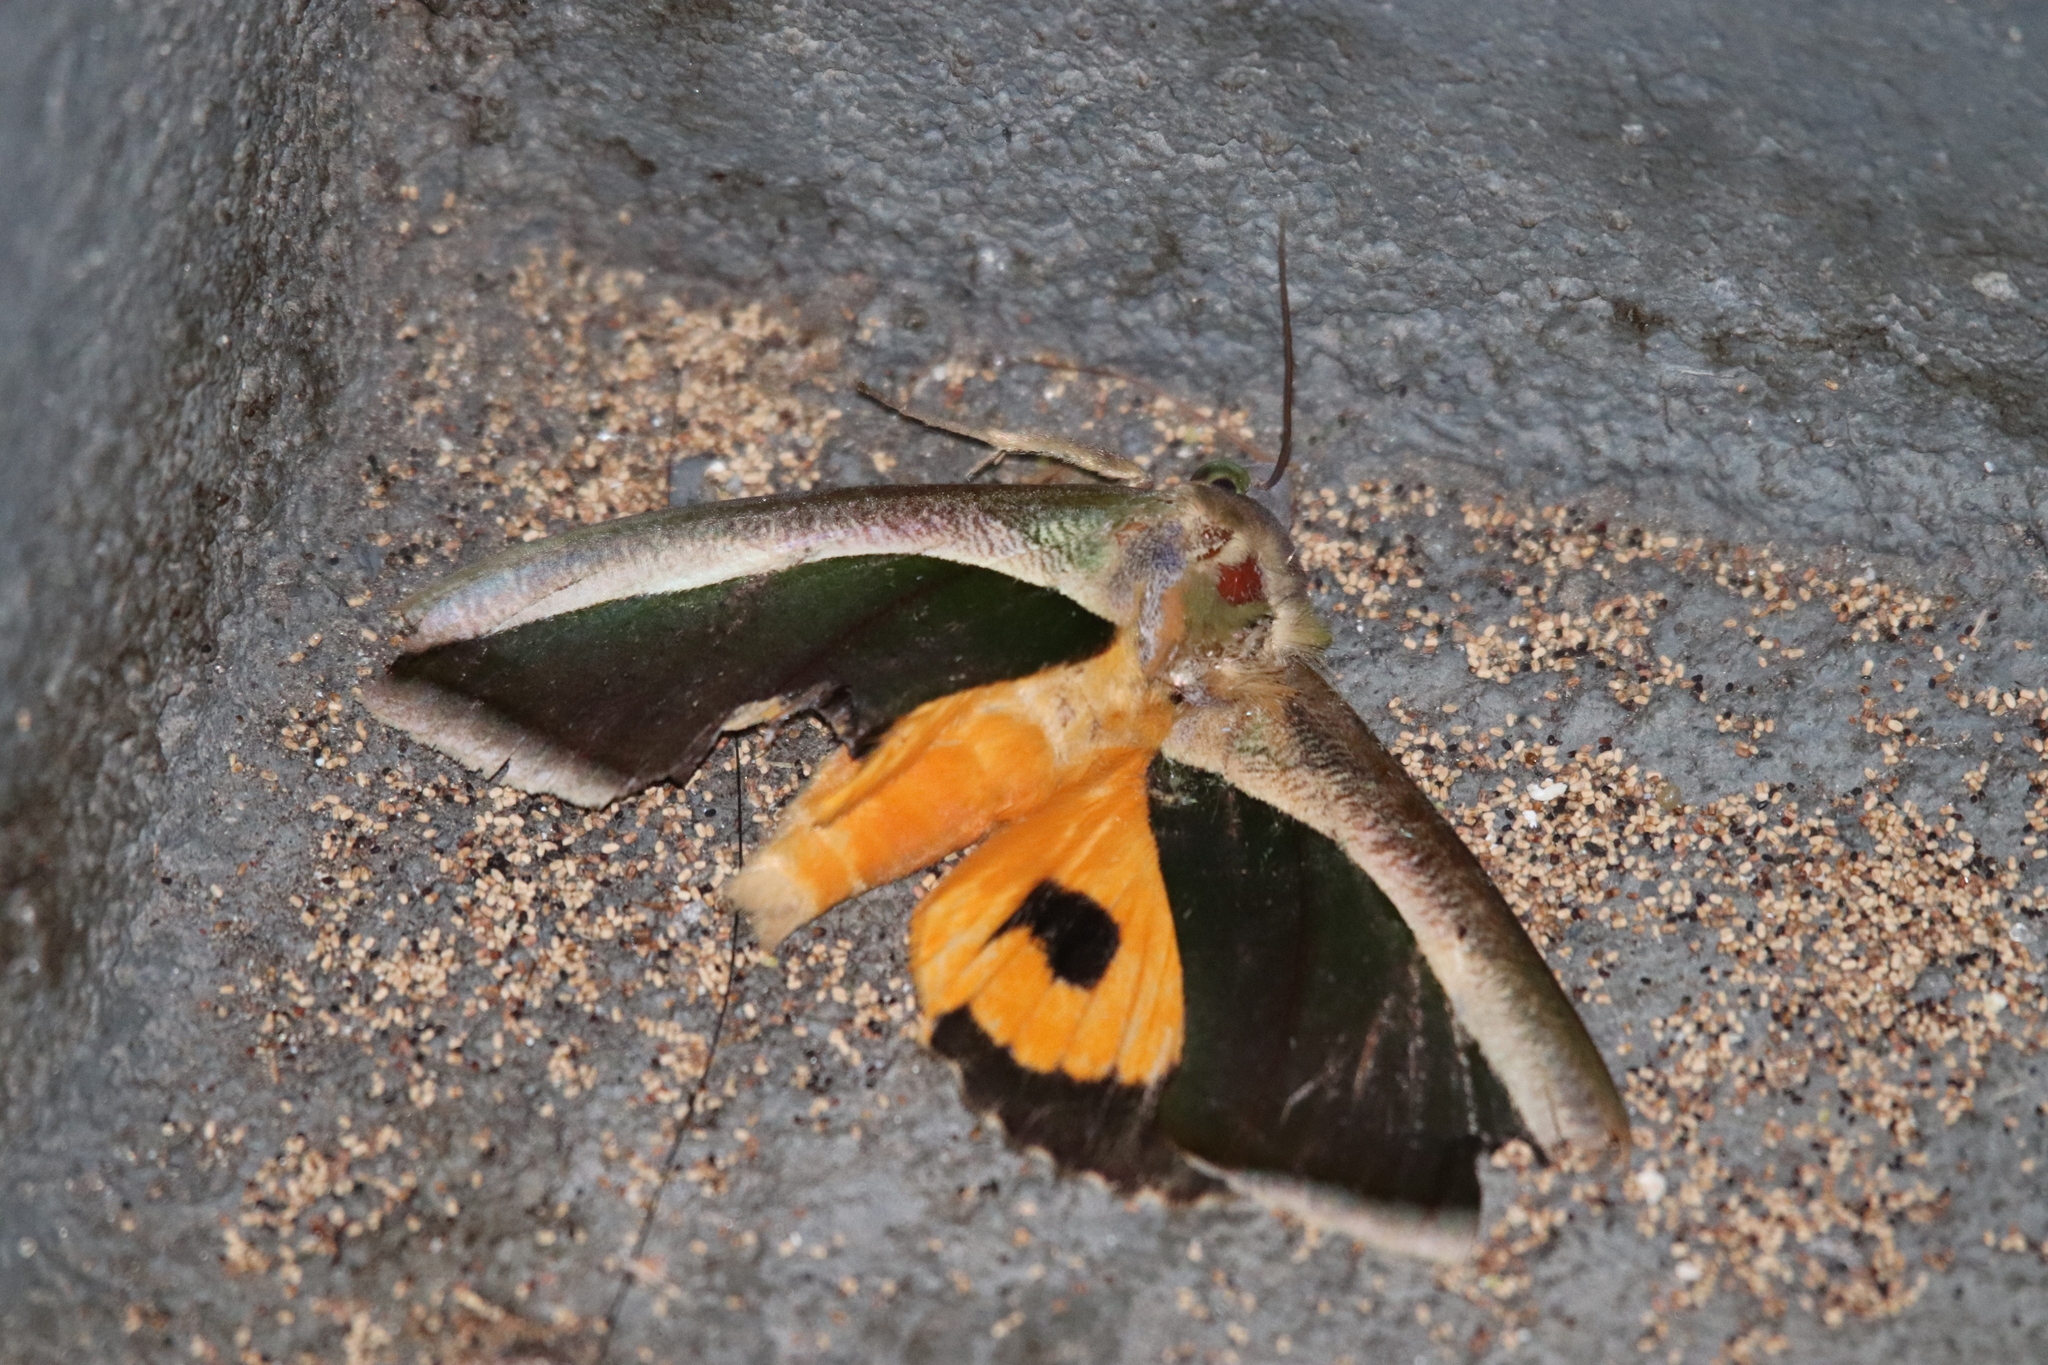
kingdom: Animalia
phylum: Arthropoda
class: Insecta
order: Lepidoptera
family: Erebidae
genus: Eudocima
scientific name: Eudocima salaminia
